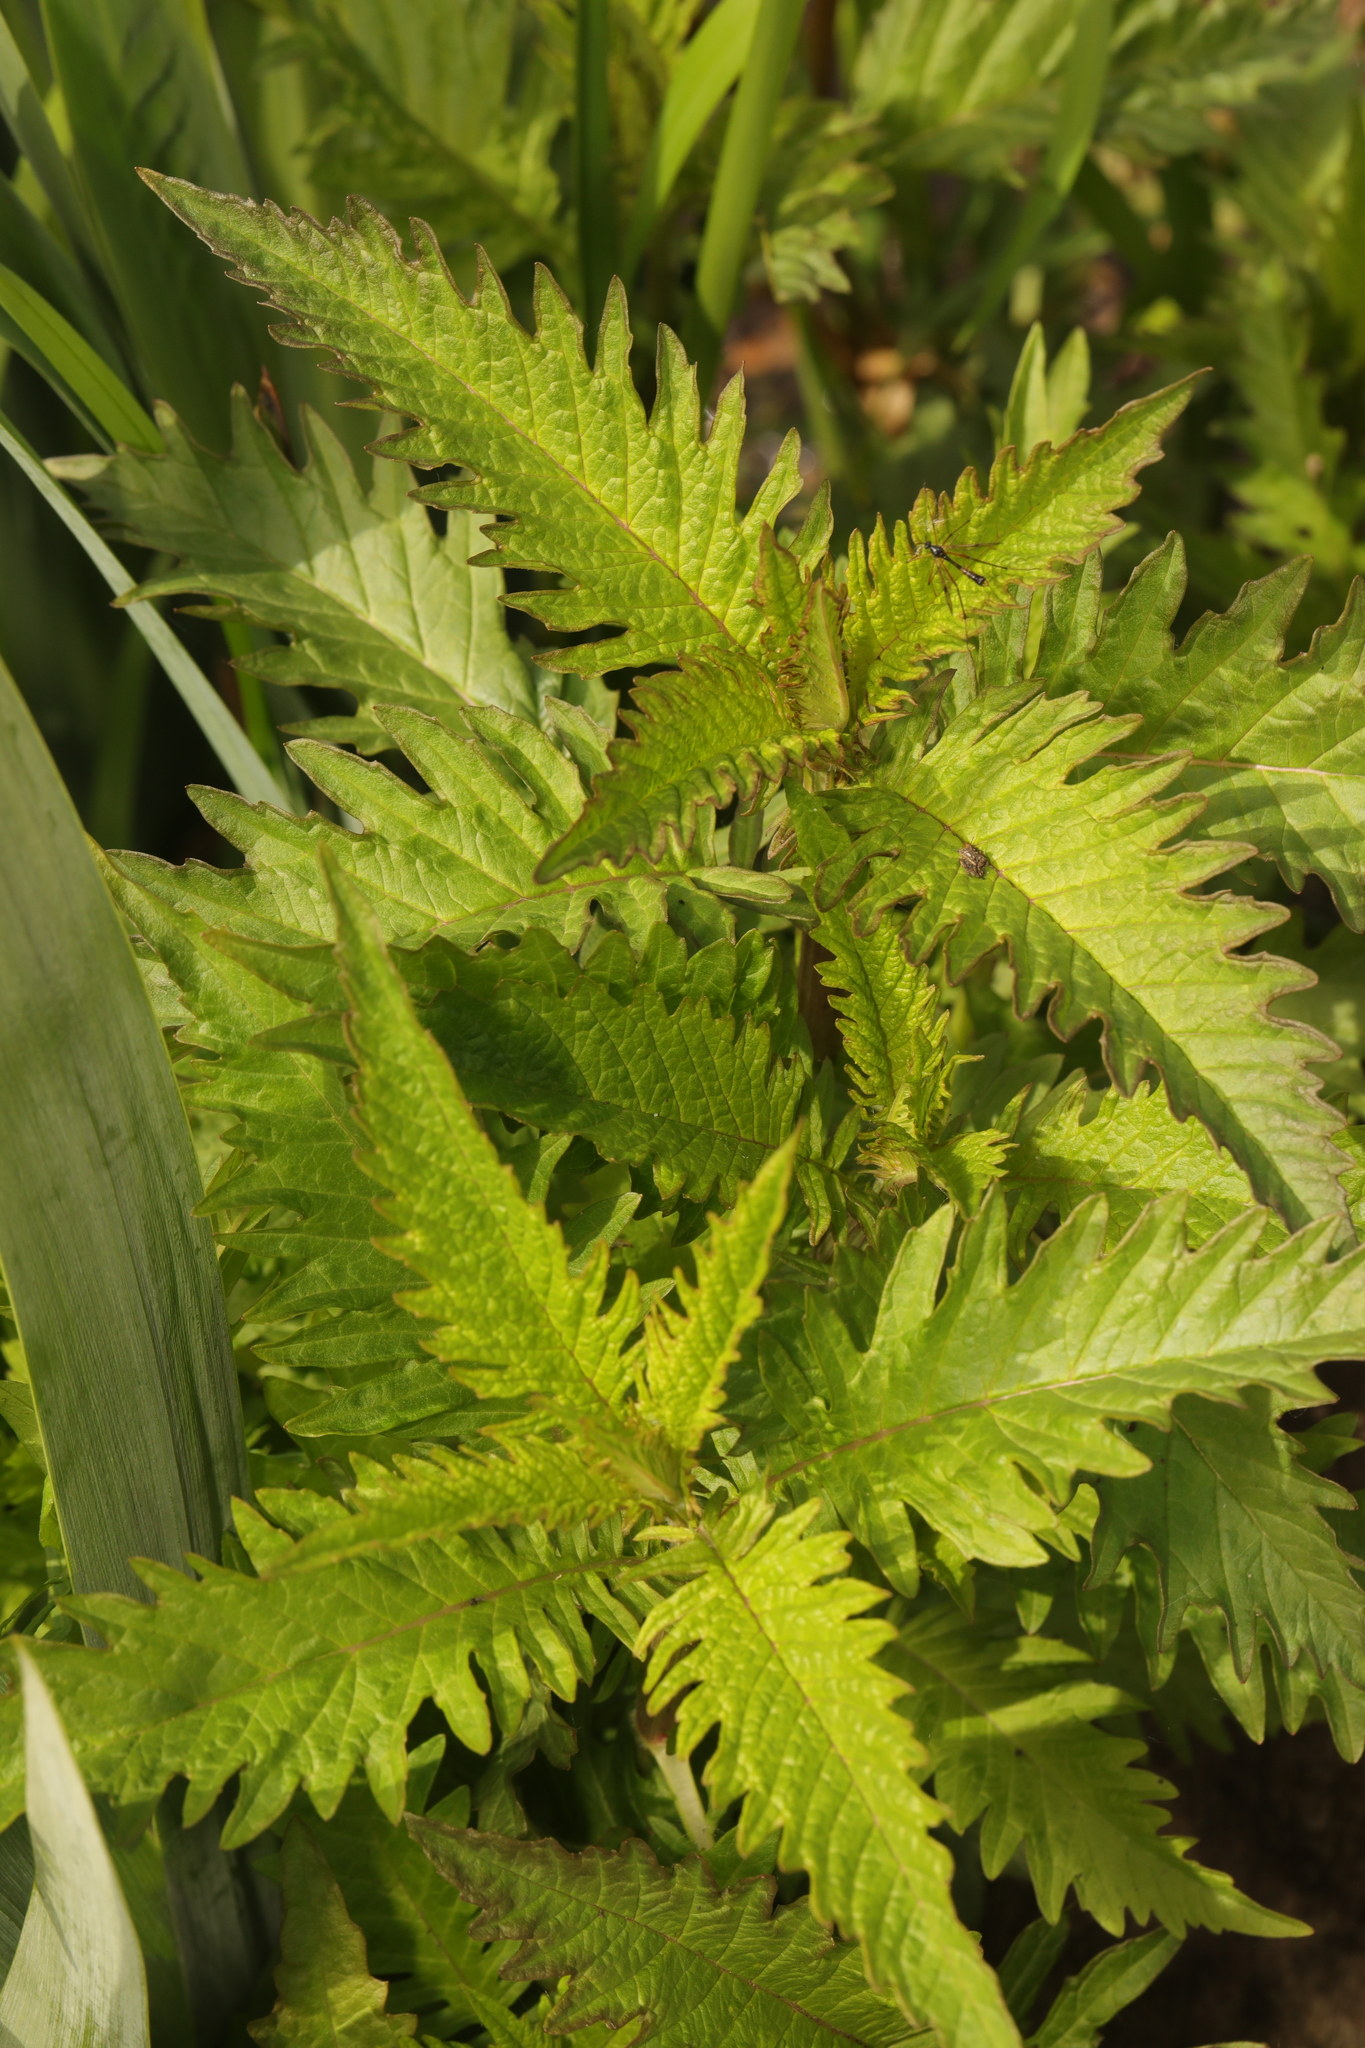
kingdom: Plantae
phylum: Tracheophyta
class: Magnoliopsida
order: Lamiales
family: Lamiaceae
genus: Lycopus
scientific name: Lycopus europaeus
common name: European bugleweed
